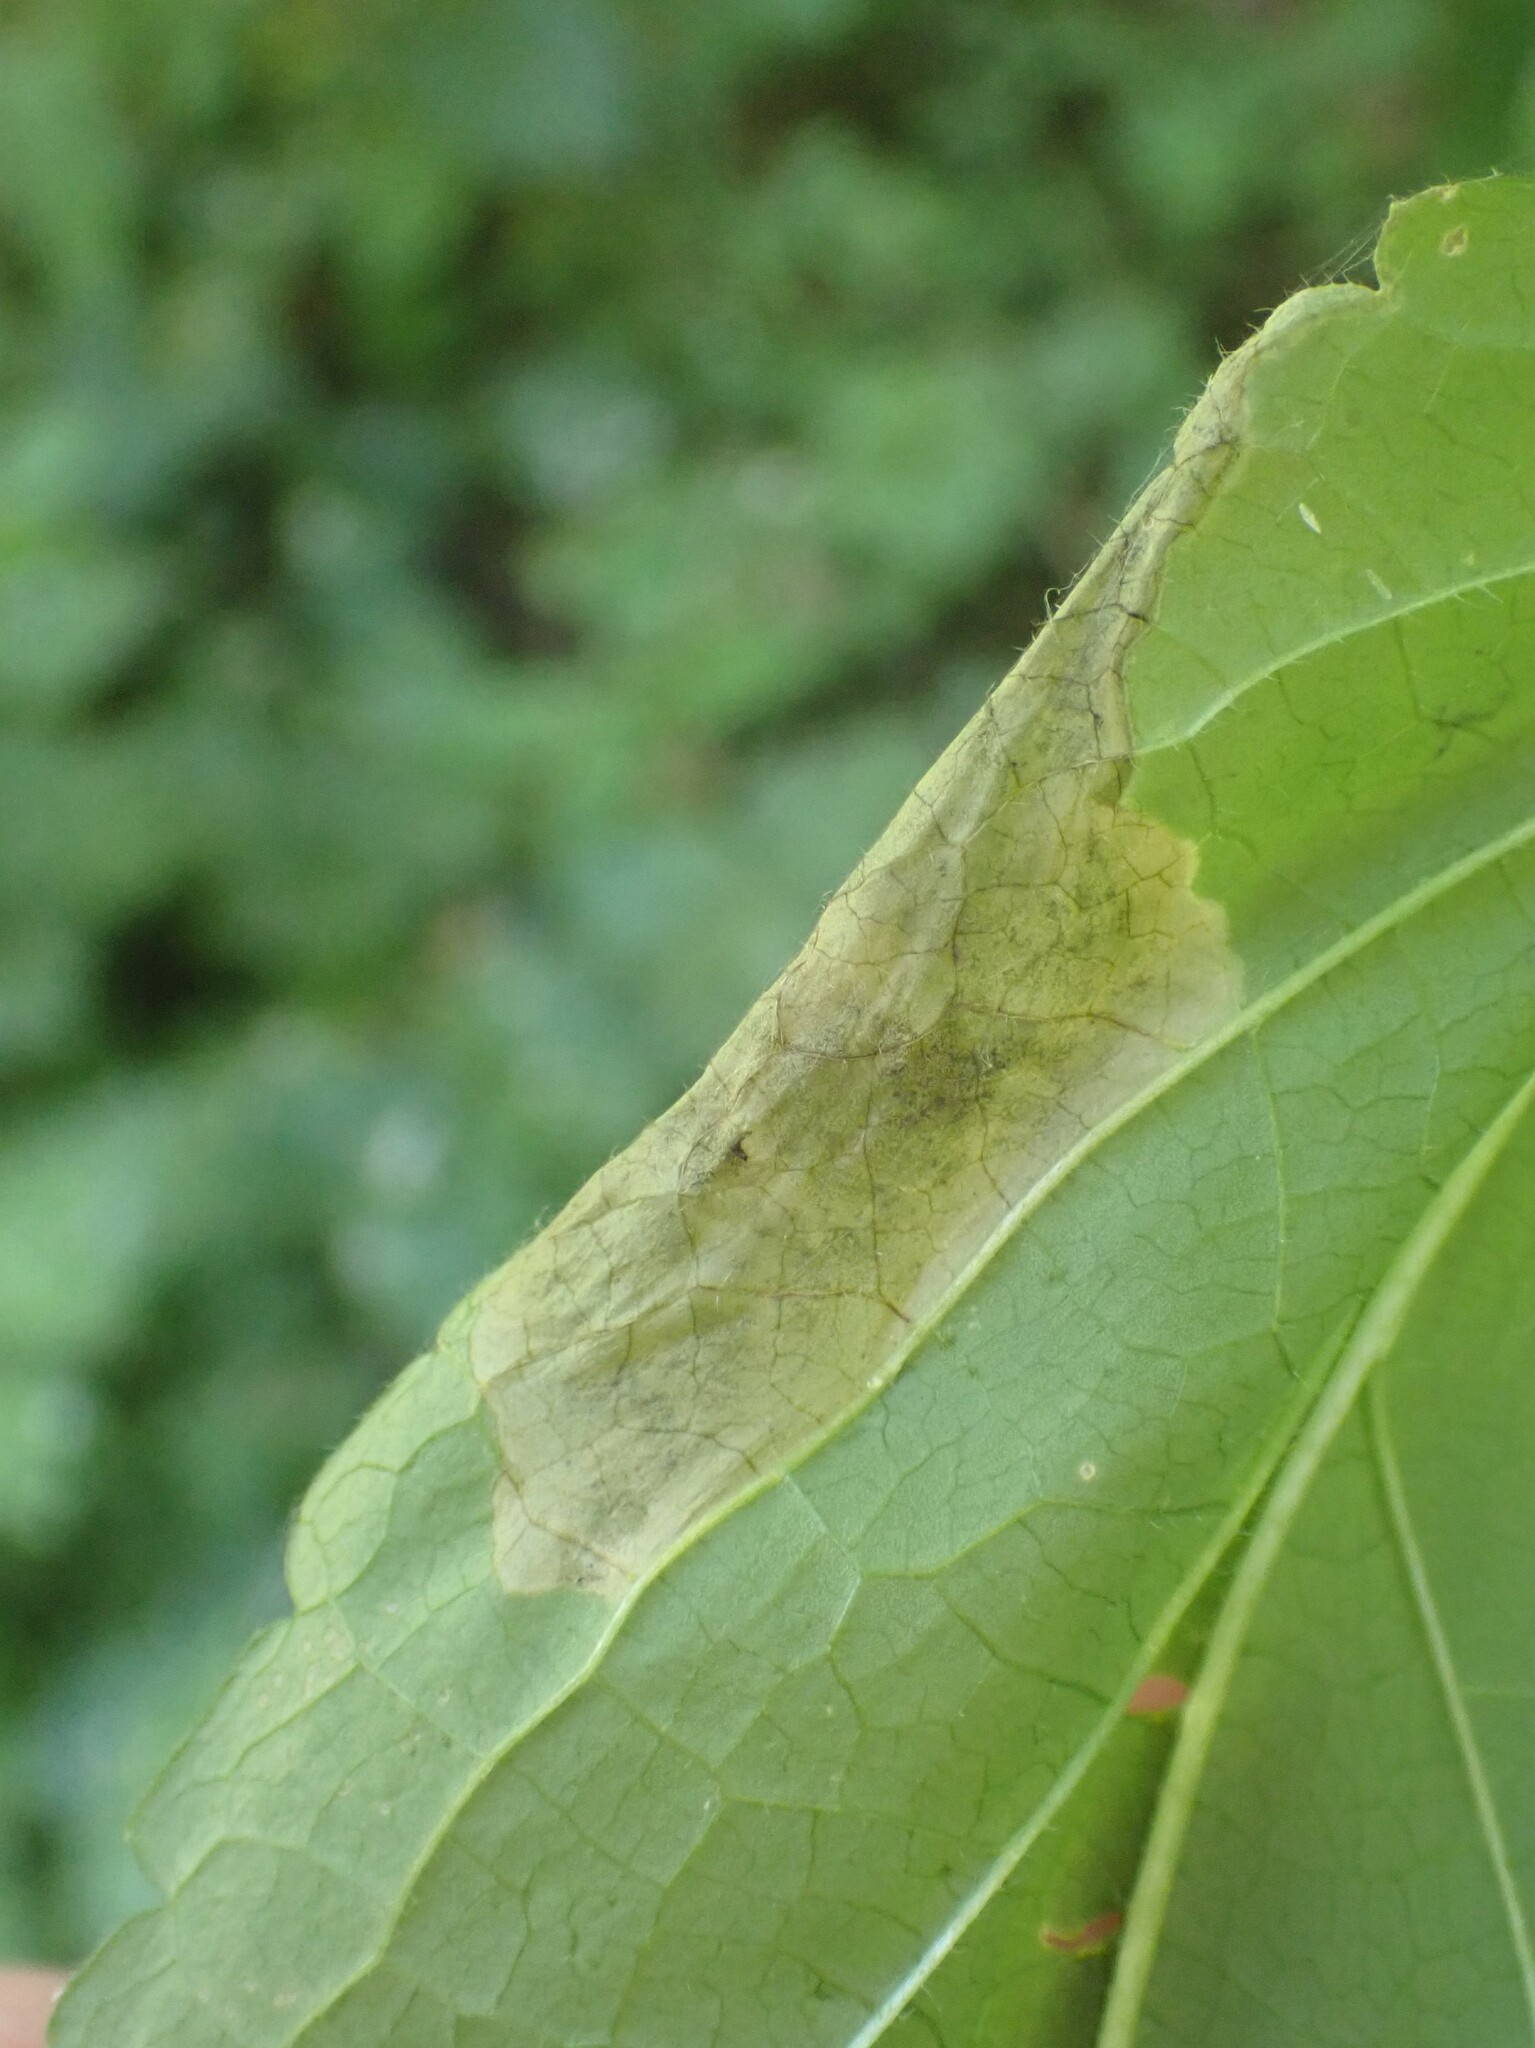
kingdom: Animalia
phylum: Arthropoda
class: Insecta
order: Diptera
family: Agromyzidae
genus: Nemorimyza
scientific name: Nemorimyza posticata
